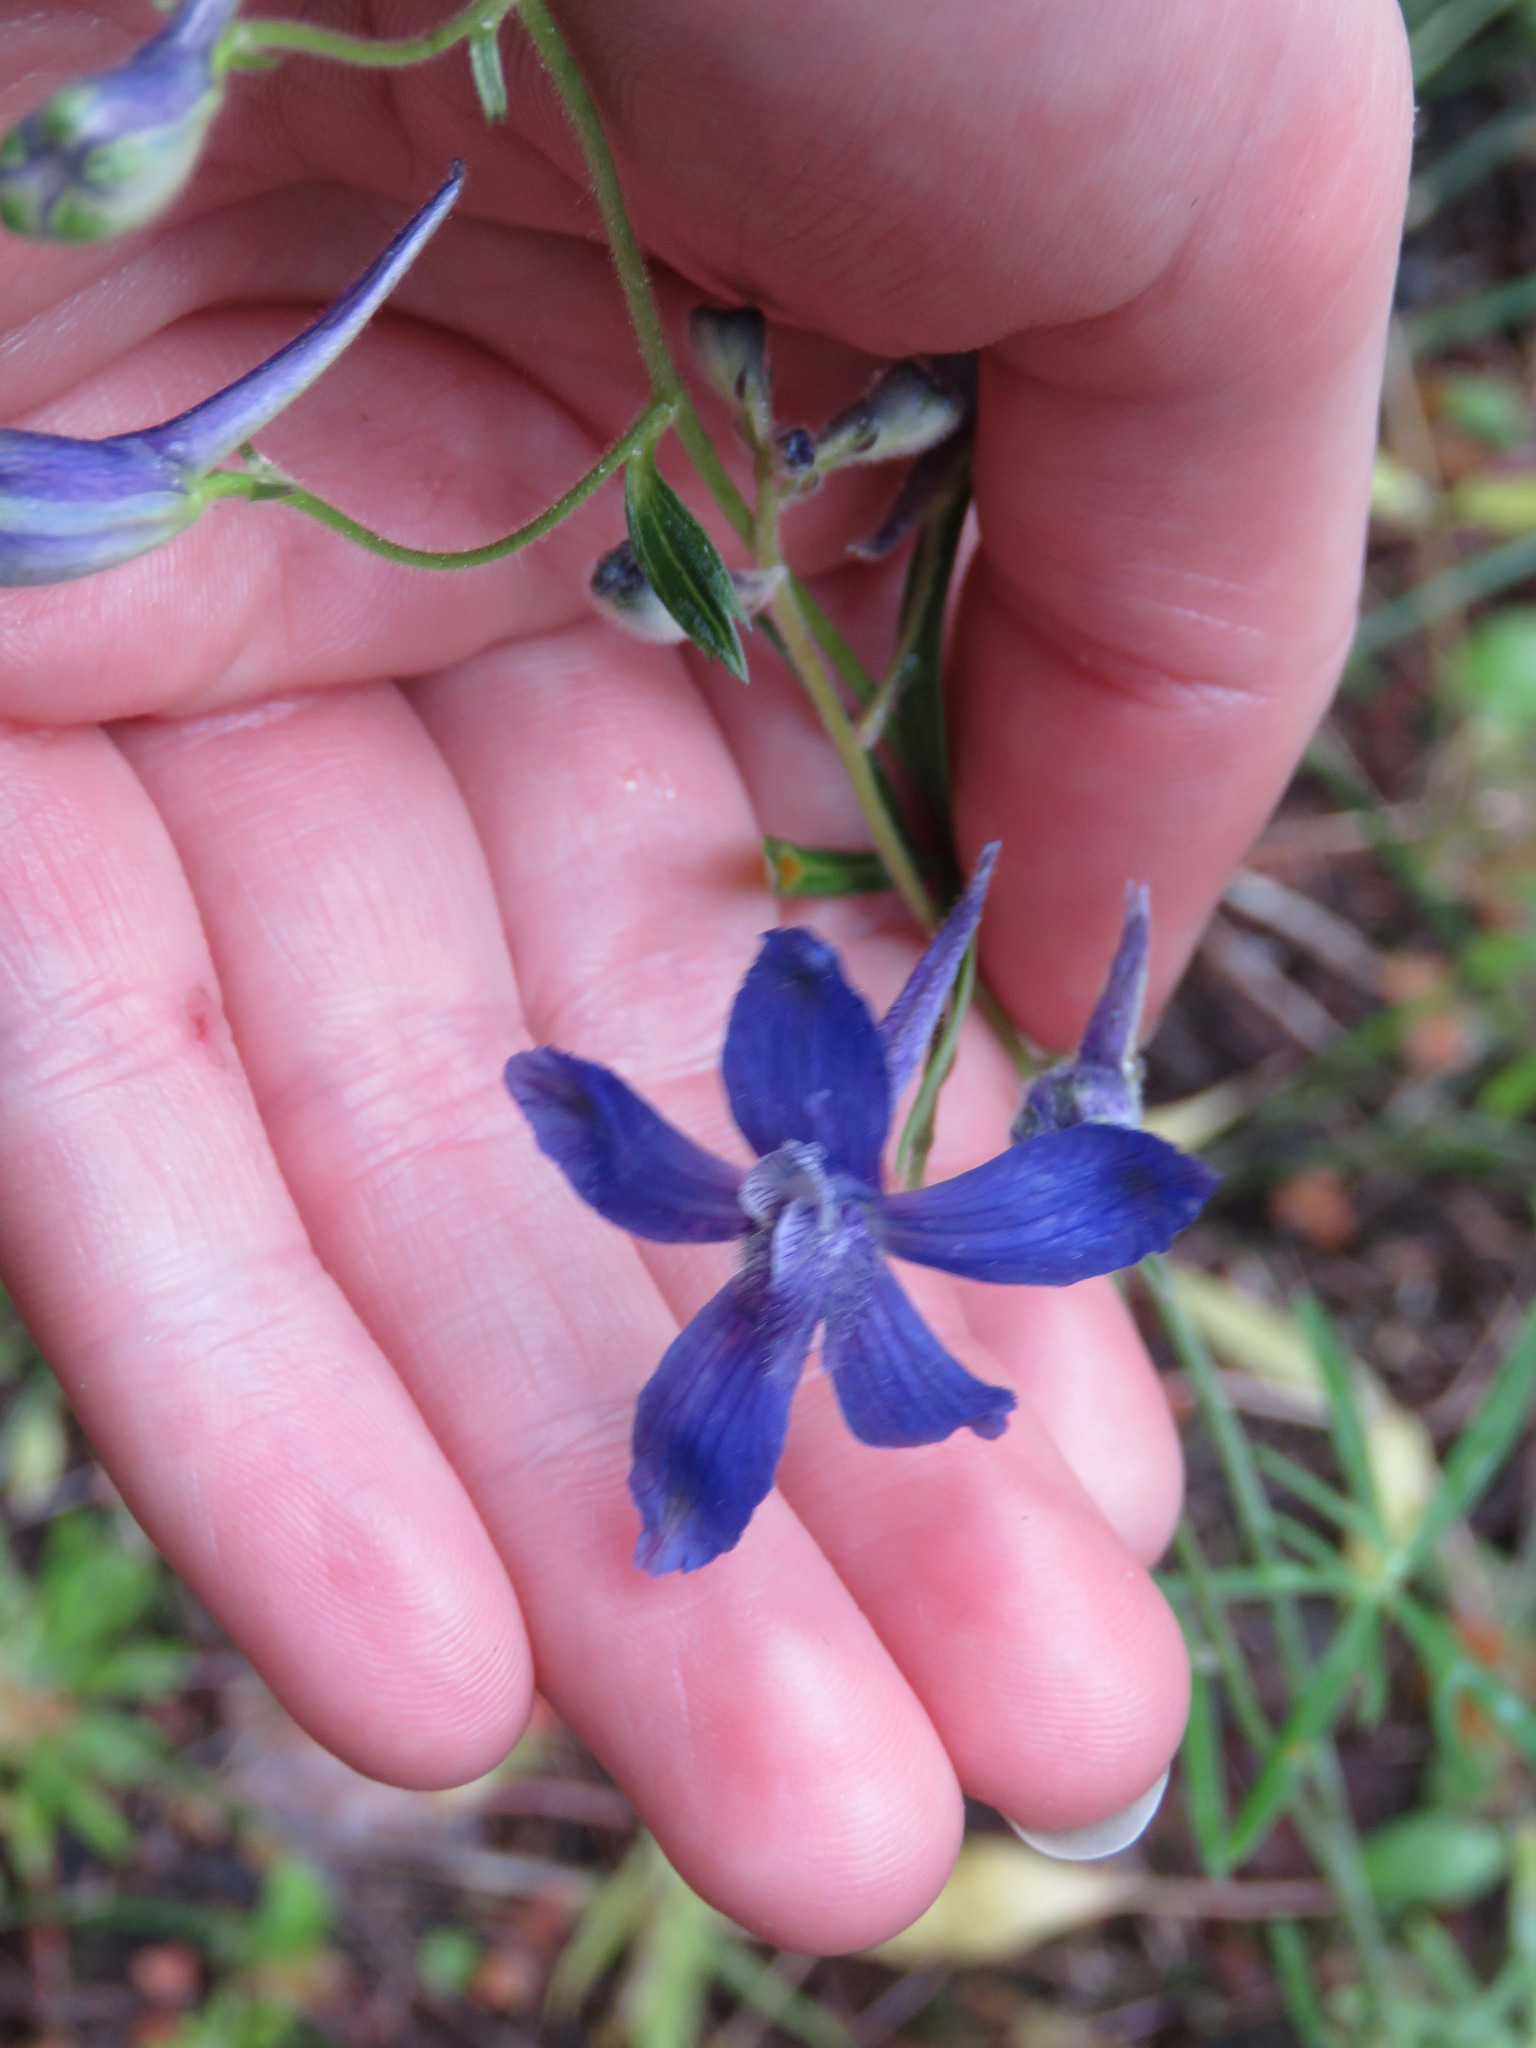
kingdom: Plantae
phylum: Tracheophyta
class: Magnoliopsida
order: Ranunculales
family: Ranunculaceae
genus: Delphinium
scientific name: Delphinium nuttallianum
